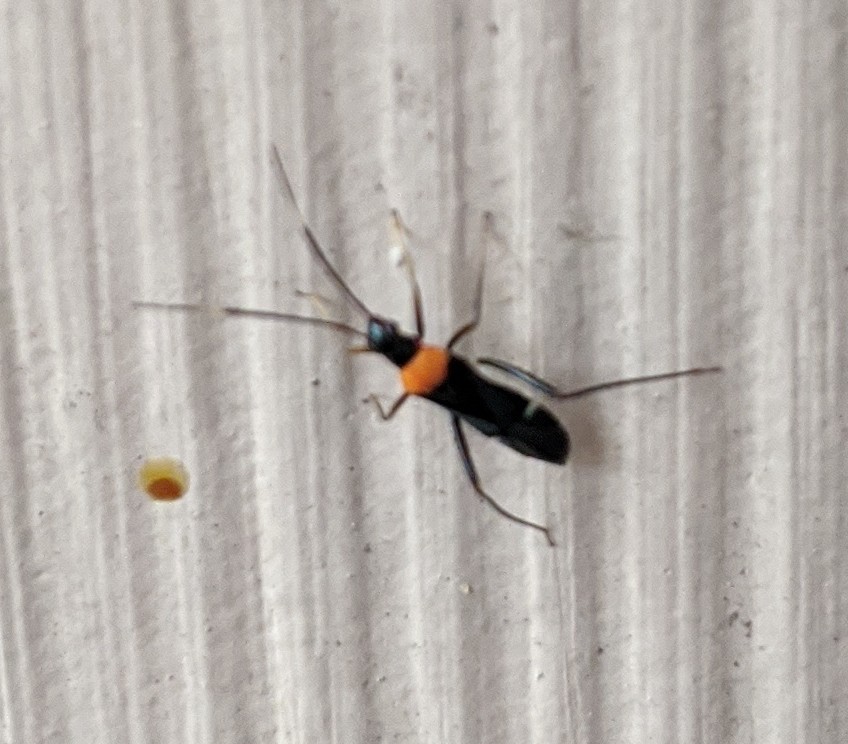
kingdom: Animalia
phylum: Arthropoda
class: Insecta
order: Hemiptera
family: Miridae
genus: Pseudoxenetus
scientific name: Pseudoxenetus regalis
